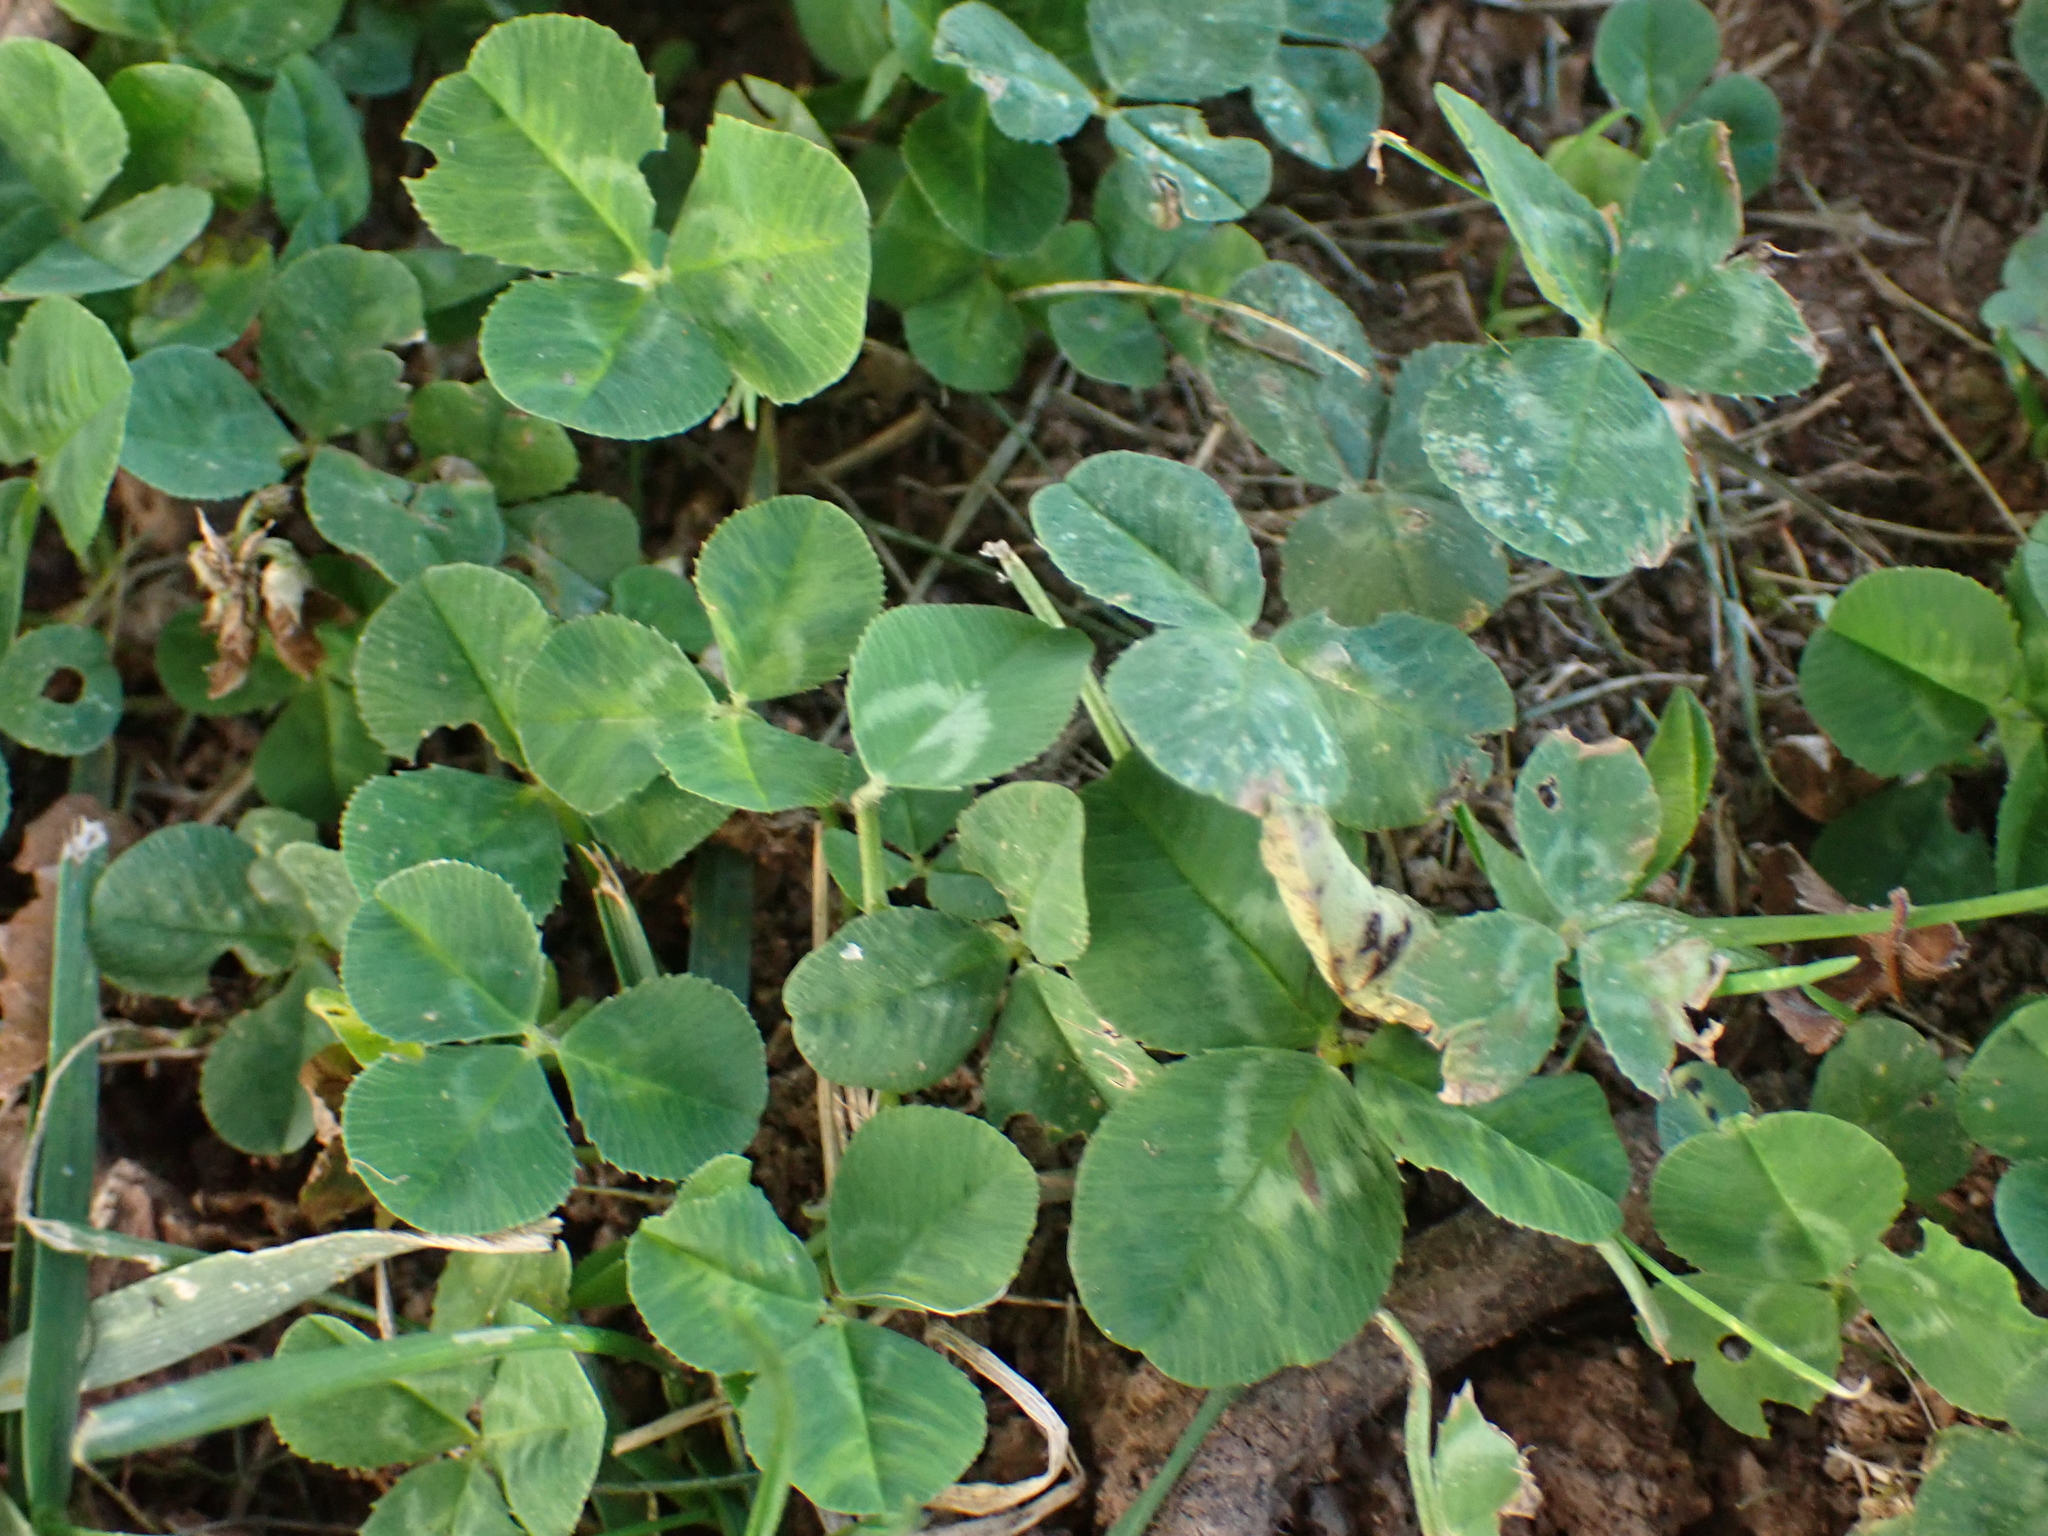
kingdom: Plantae
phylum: Tracheophyta
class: Magnoliopsida
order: Fabales
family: Fabaceae
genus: Trifolium
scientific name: Trifolium repens
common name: White clover
